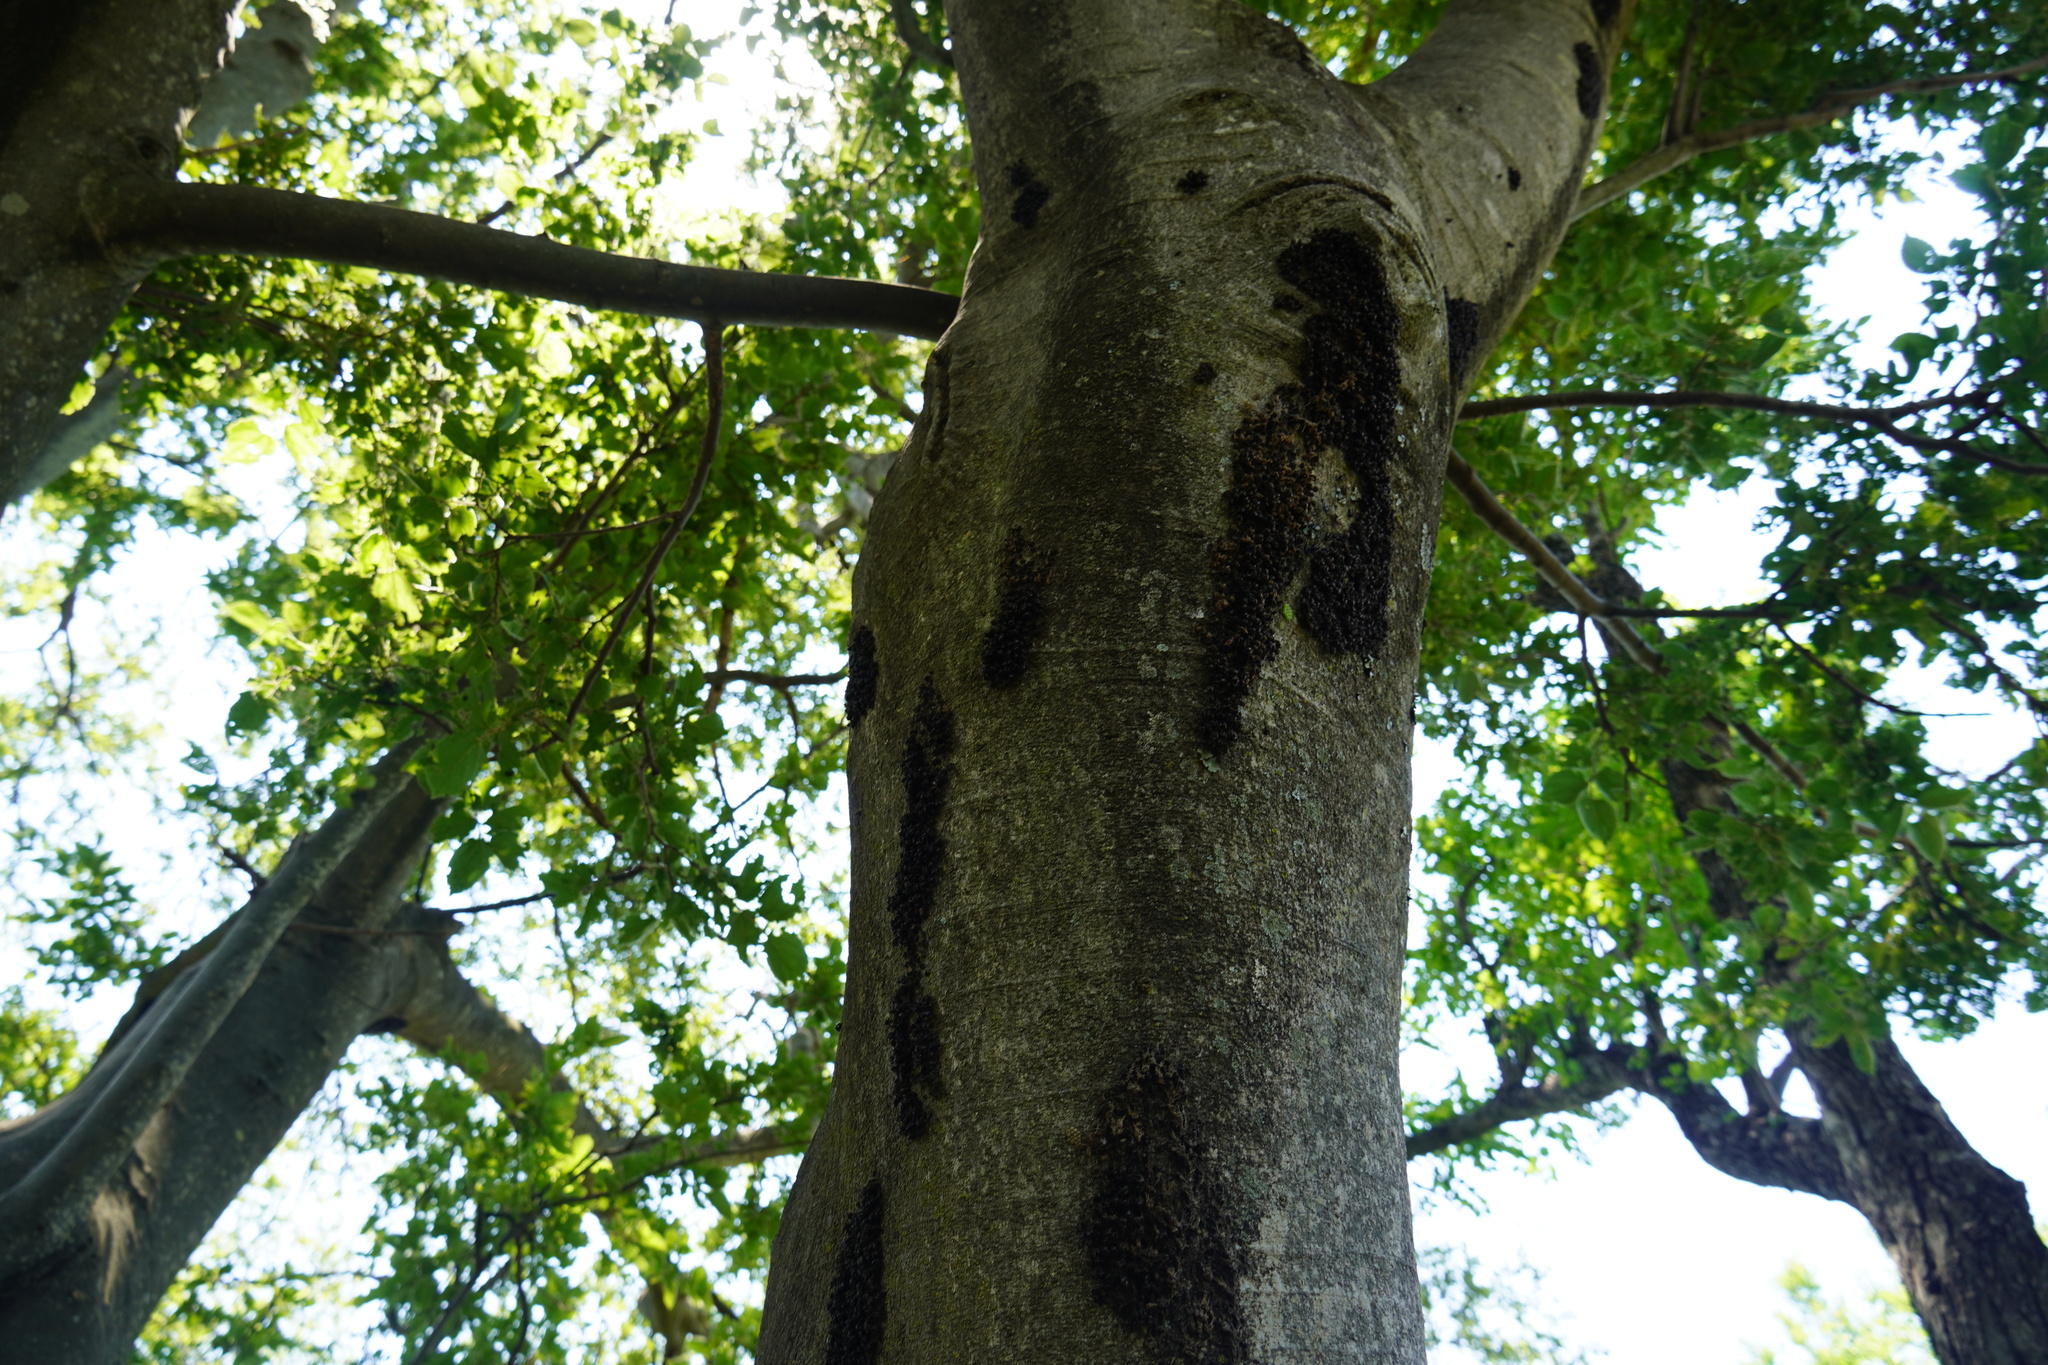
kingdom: Plantae
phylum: Tracheophyta
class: Magnoliopsida
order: Rosales
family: Cannabaceae
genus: Celtis
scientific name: Celtis africana
